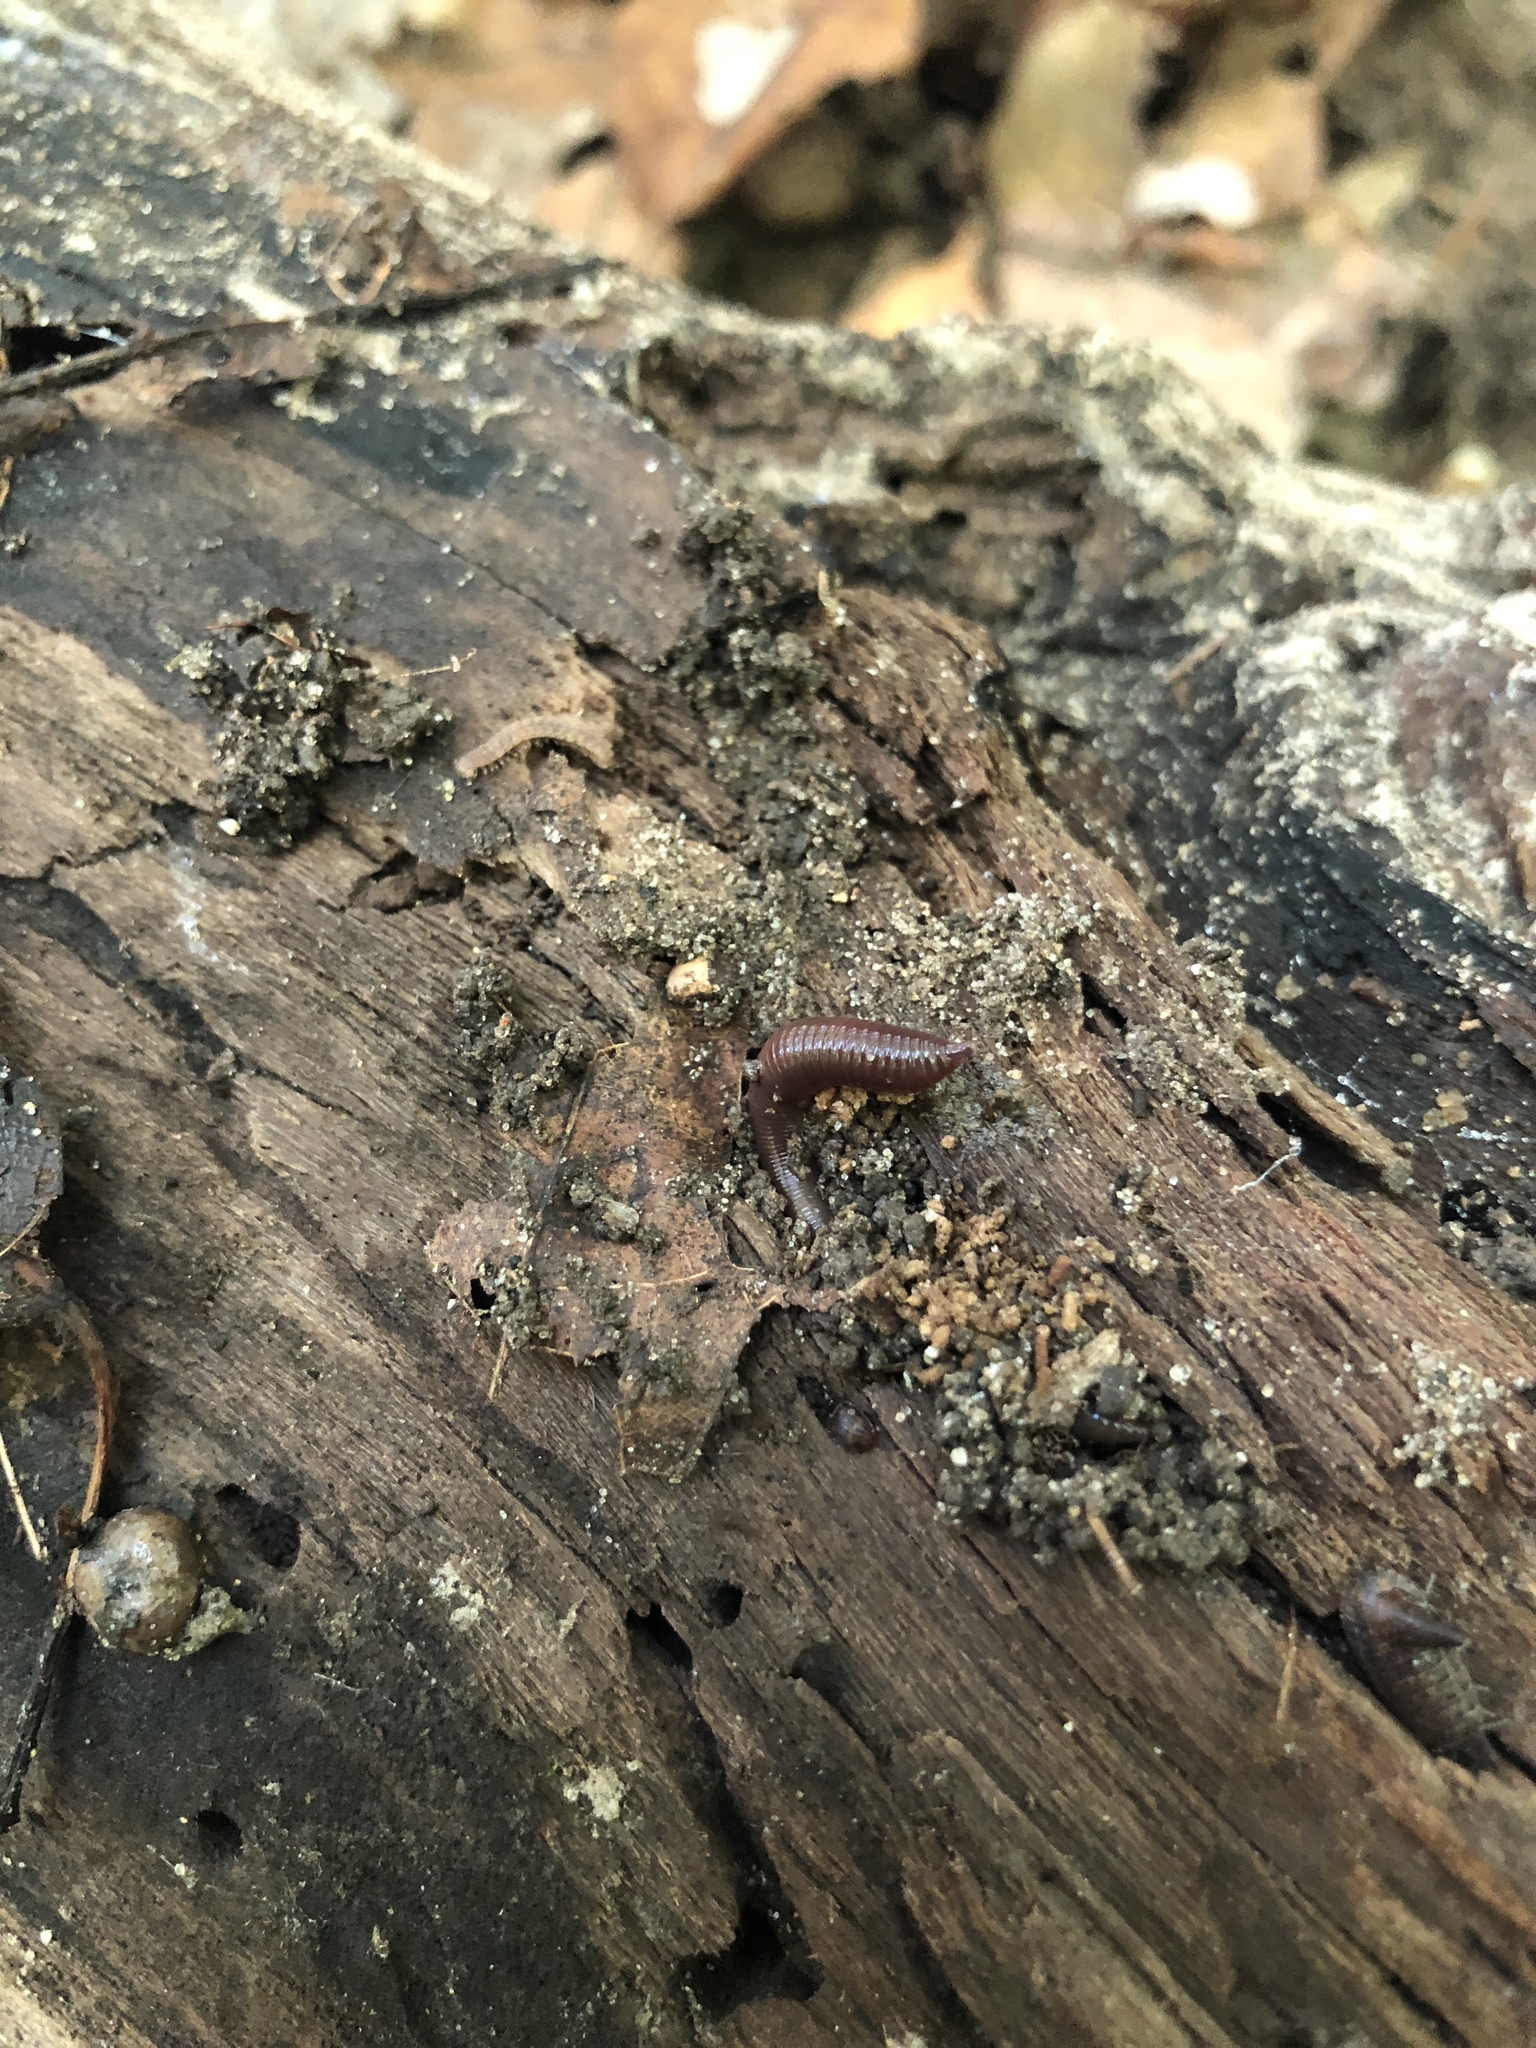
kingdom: Animalia
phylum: Annelida
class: Clitellata
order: Crassiclitellata
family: Lumbricidae
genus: Lumbricus
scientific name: Lumbricus terrestris
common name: Common earthworm
